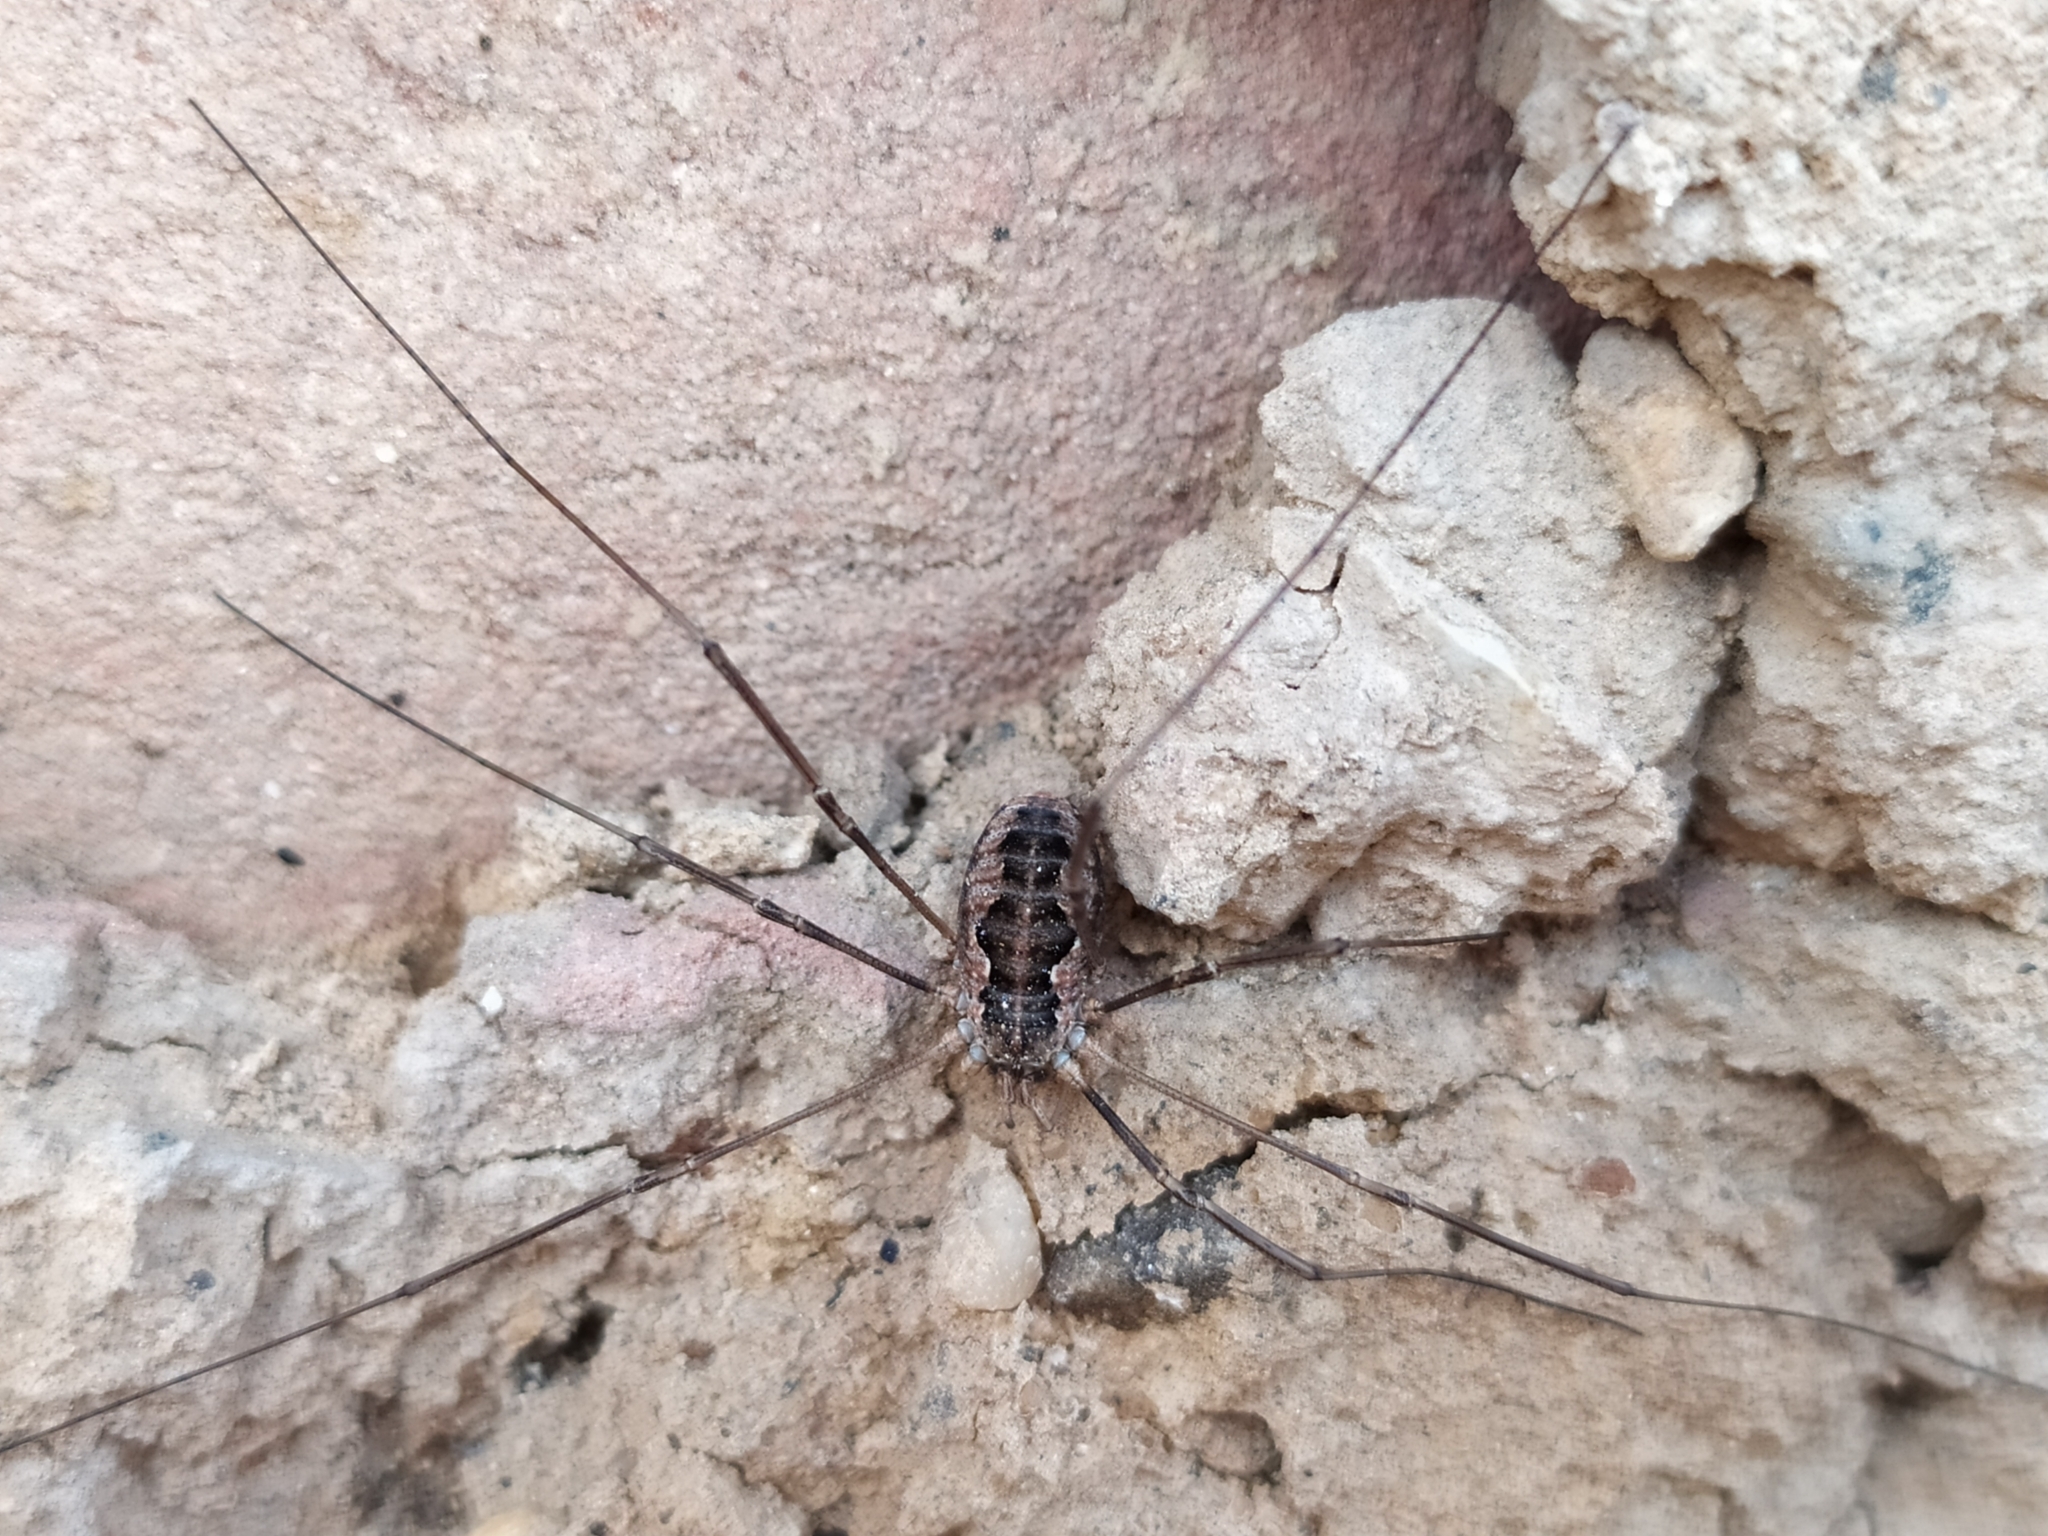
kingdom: Animalia
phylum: Arthropoda
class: Arachnida
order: Opiliones
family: Phalangiidae
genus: Phalangium
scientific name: Phalangium opilio
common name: Daddy longleg
